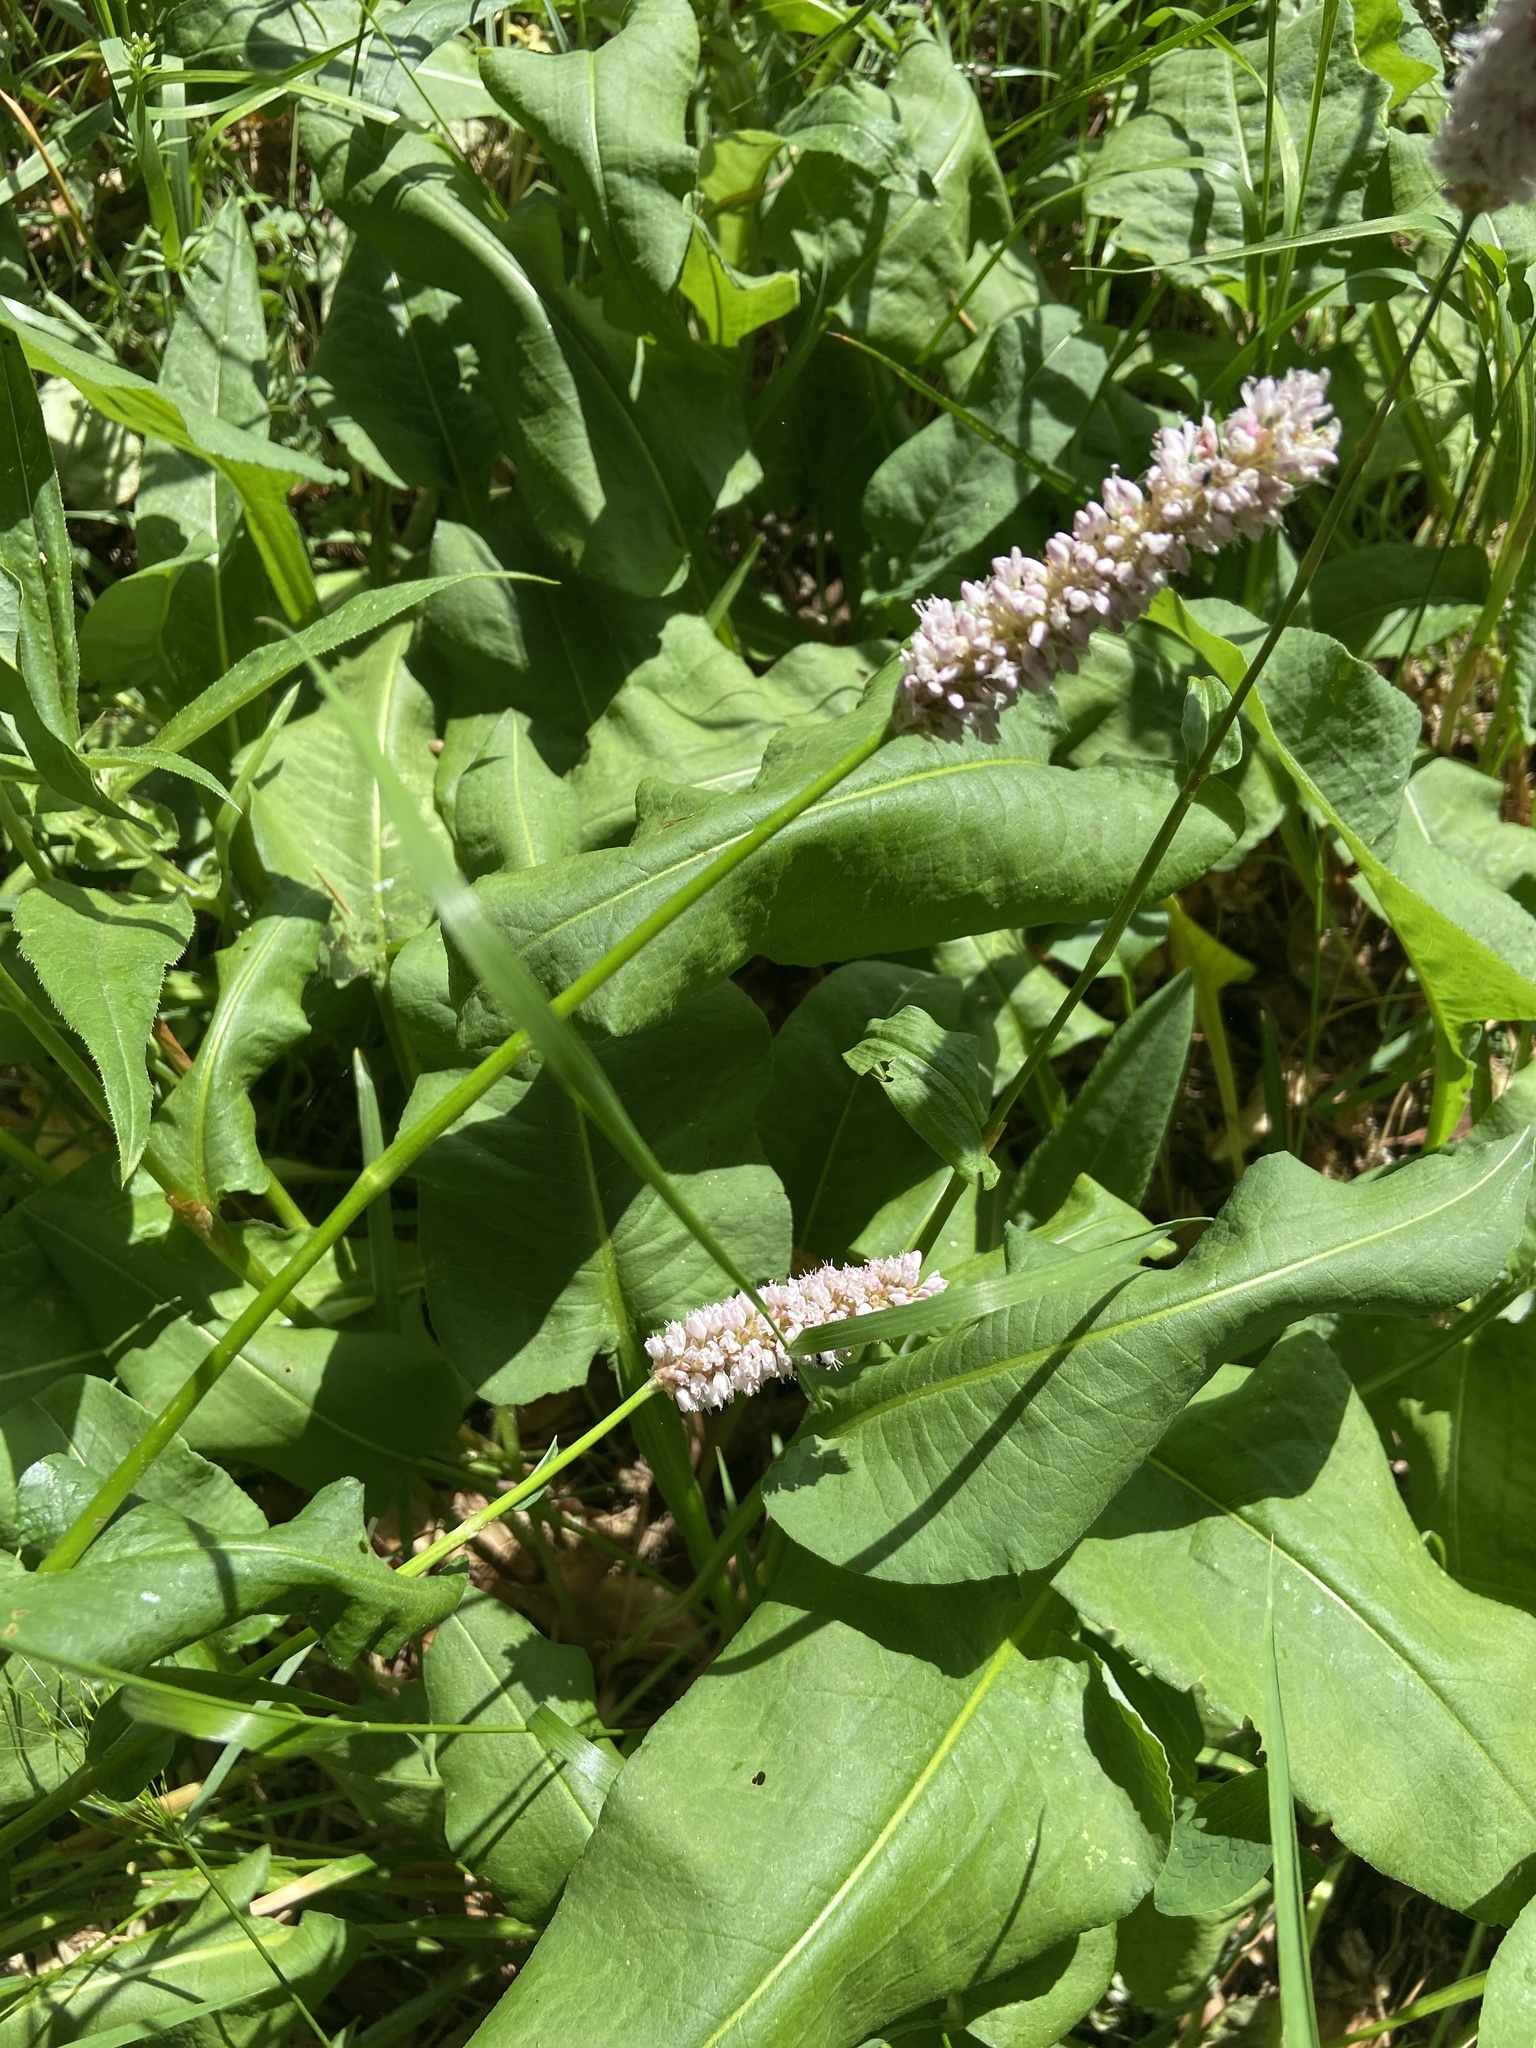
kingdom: Plantae
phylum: Tracheophyta
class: Magnoliopsida
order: Caryophyllales
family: Polygonaceae
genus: Bistorta
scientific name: Bistorta officinalis
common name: Common bistort
